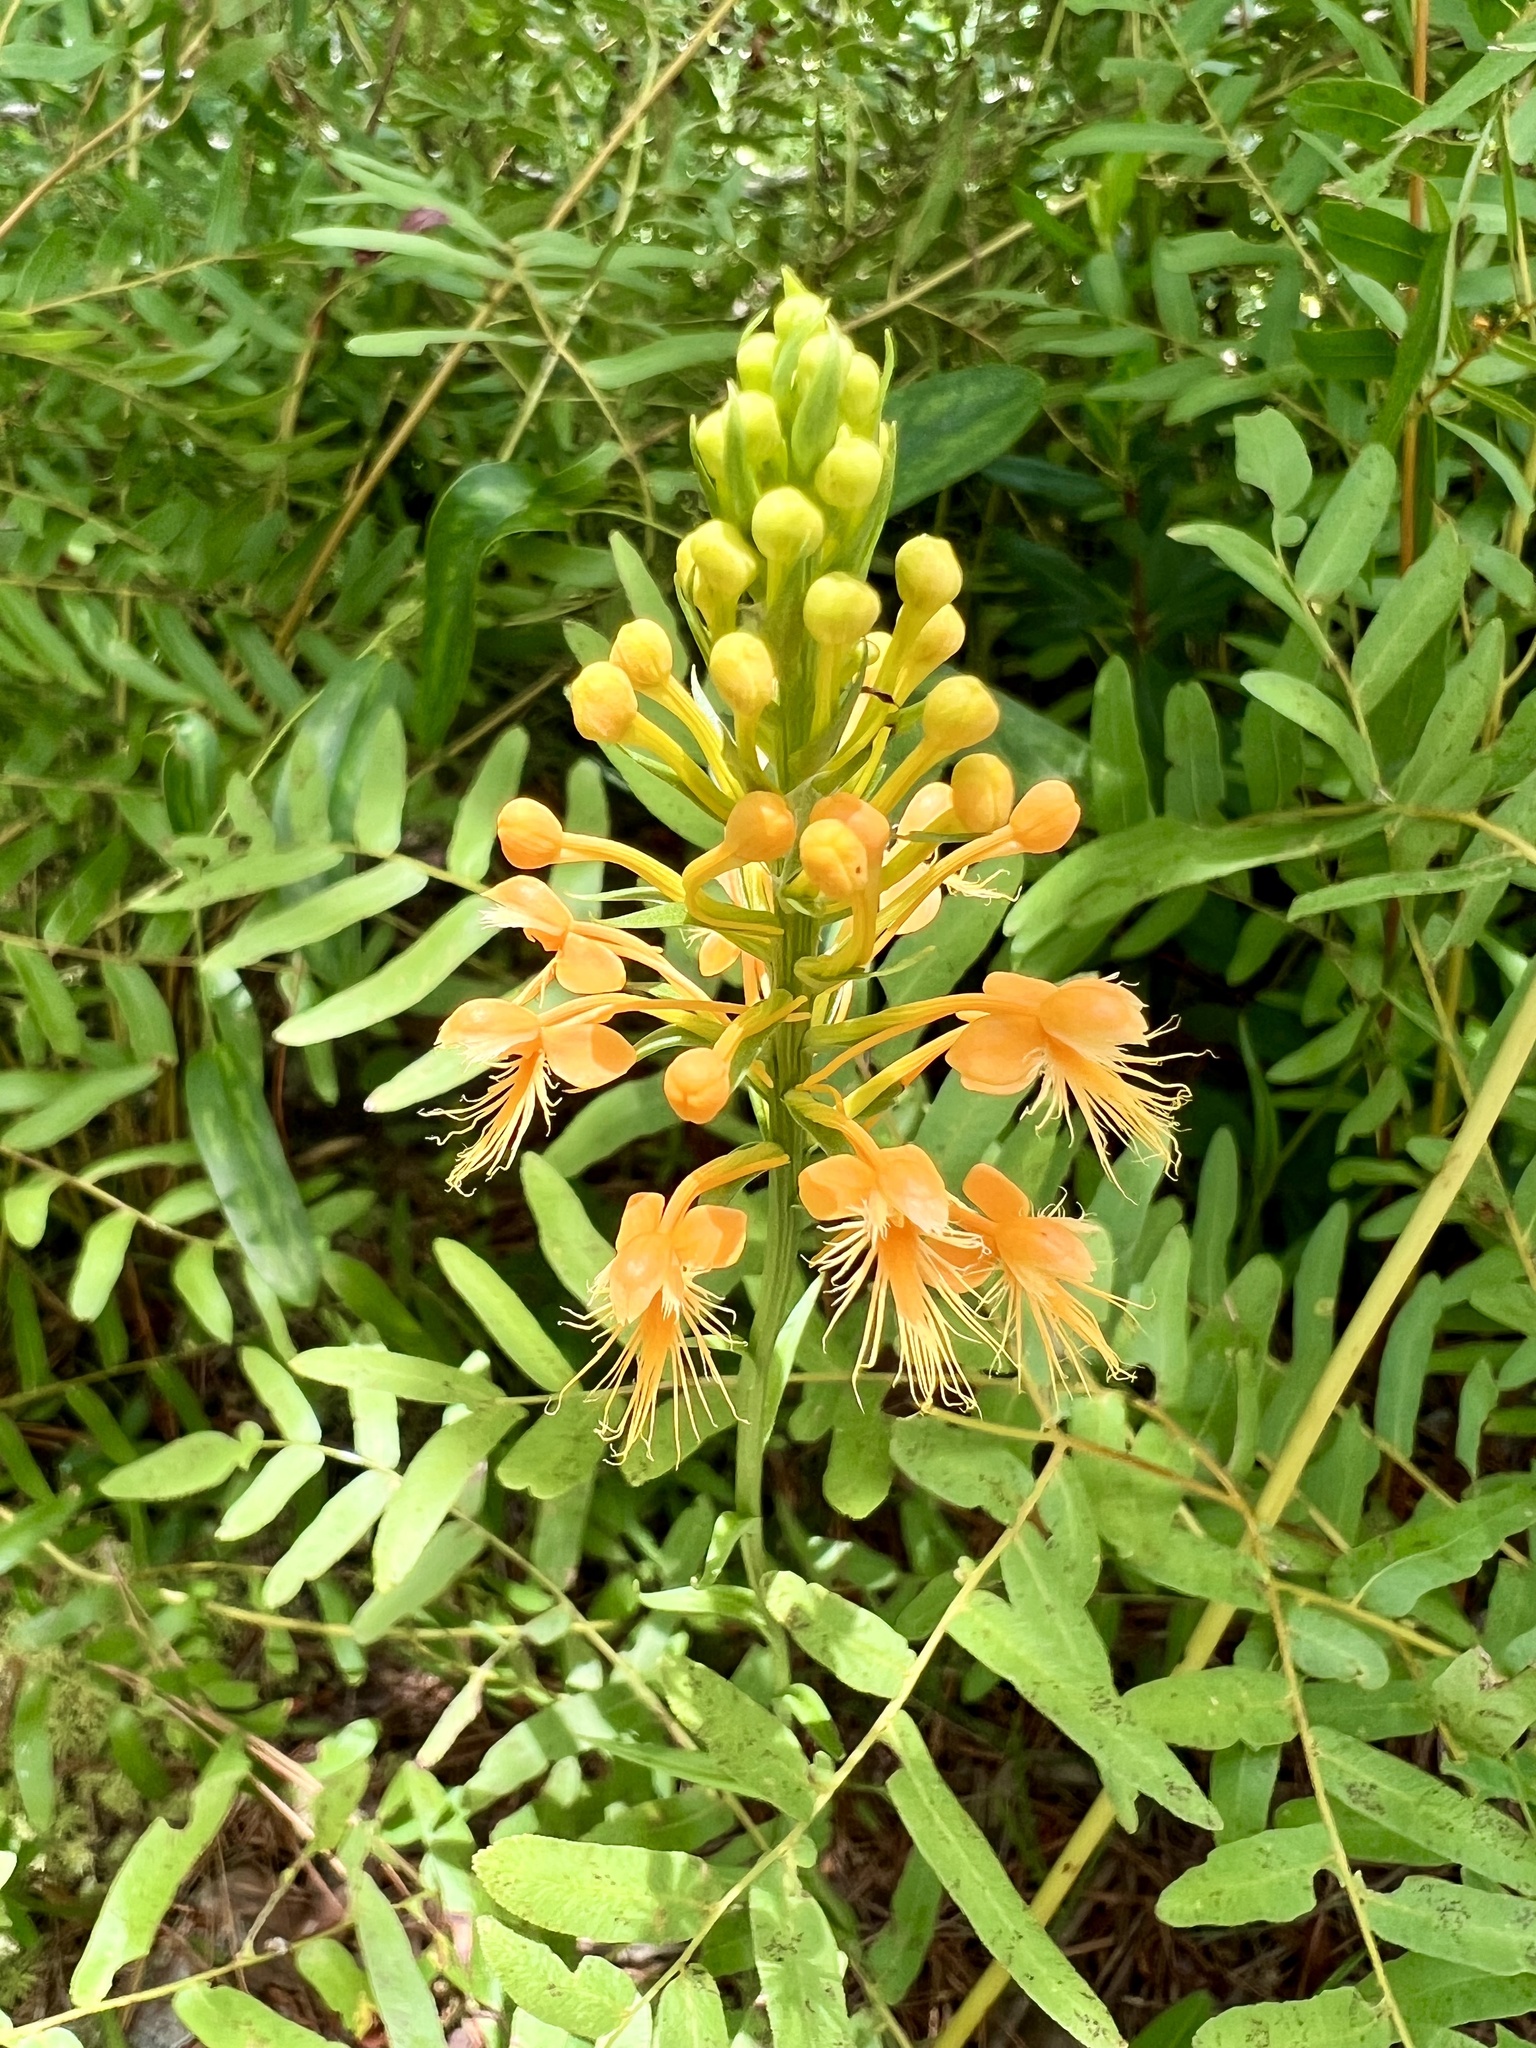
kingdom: Plantae
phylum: Tracheophyta
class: Liliopsida
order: Asparagales
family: Orchidaceae
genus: Platanthera
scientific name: Platanthera chapmanii
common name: Chapman’s fringed orchid
